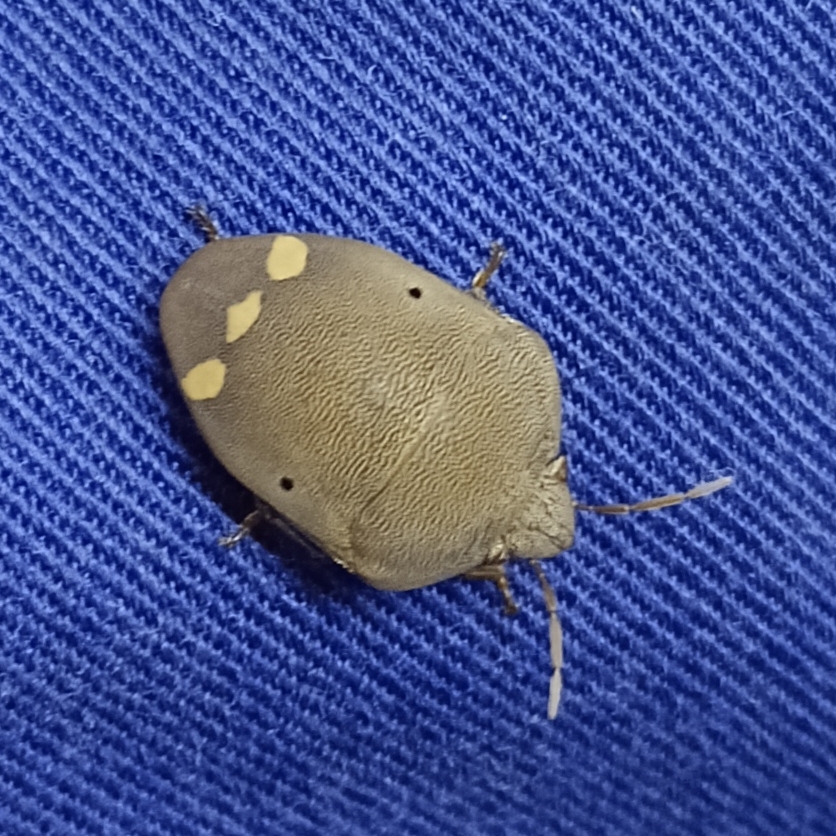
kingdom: Animalia
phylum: Arthropoda
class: Insecta
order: Hemiptera
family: Scutelleridae
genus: Solenosthedium
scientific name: Solenosthedium
